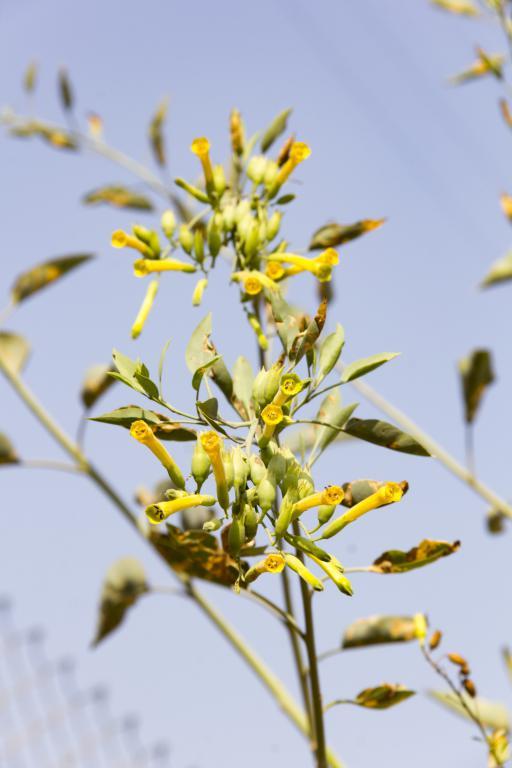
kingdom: Plantae
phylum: Tracheophyta
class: Magnoliopsida
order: Solanales
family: Solanaceae
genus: Nicotiana
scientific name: Nicotiana glauca
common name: Tree tobacco
